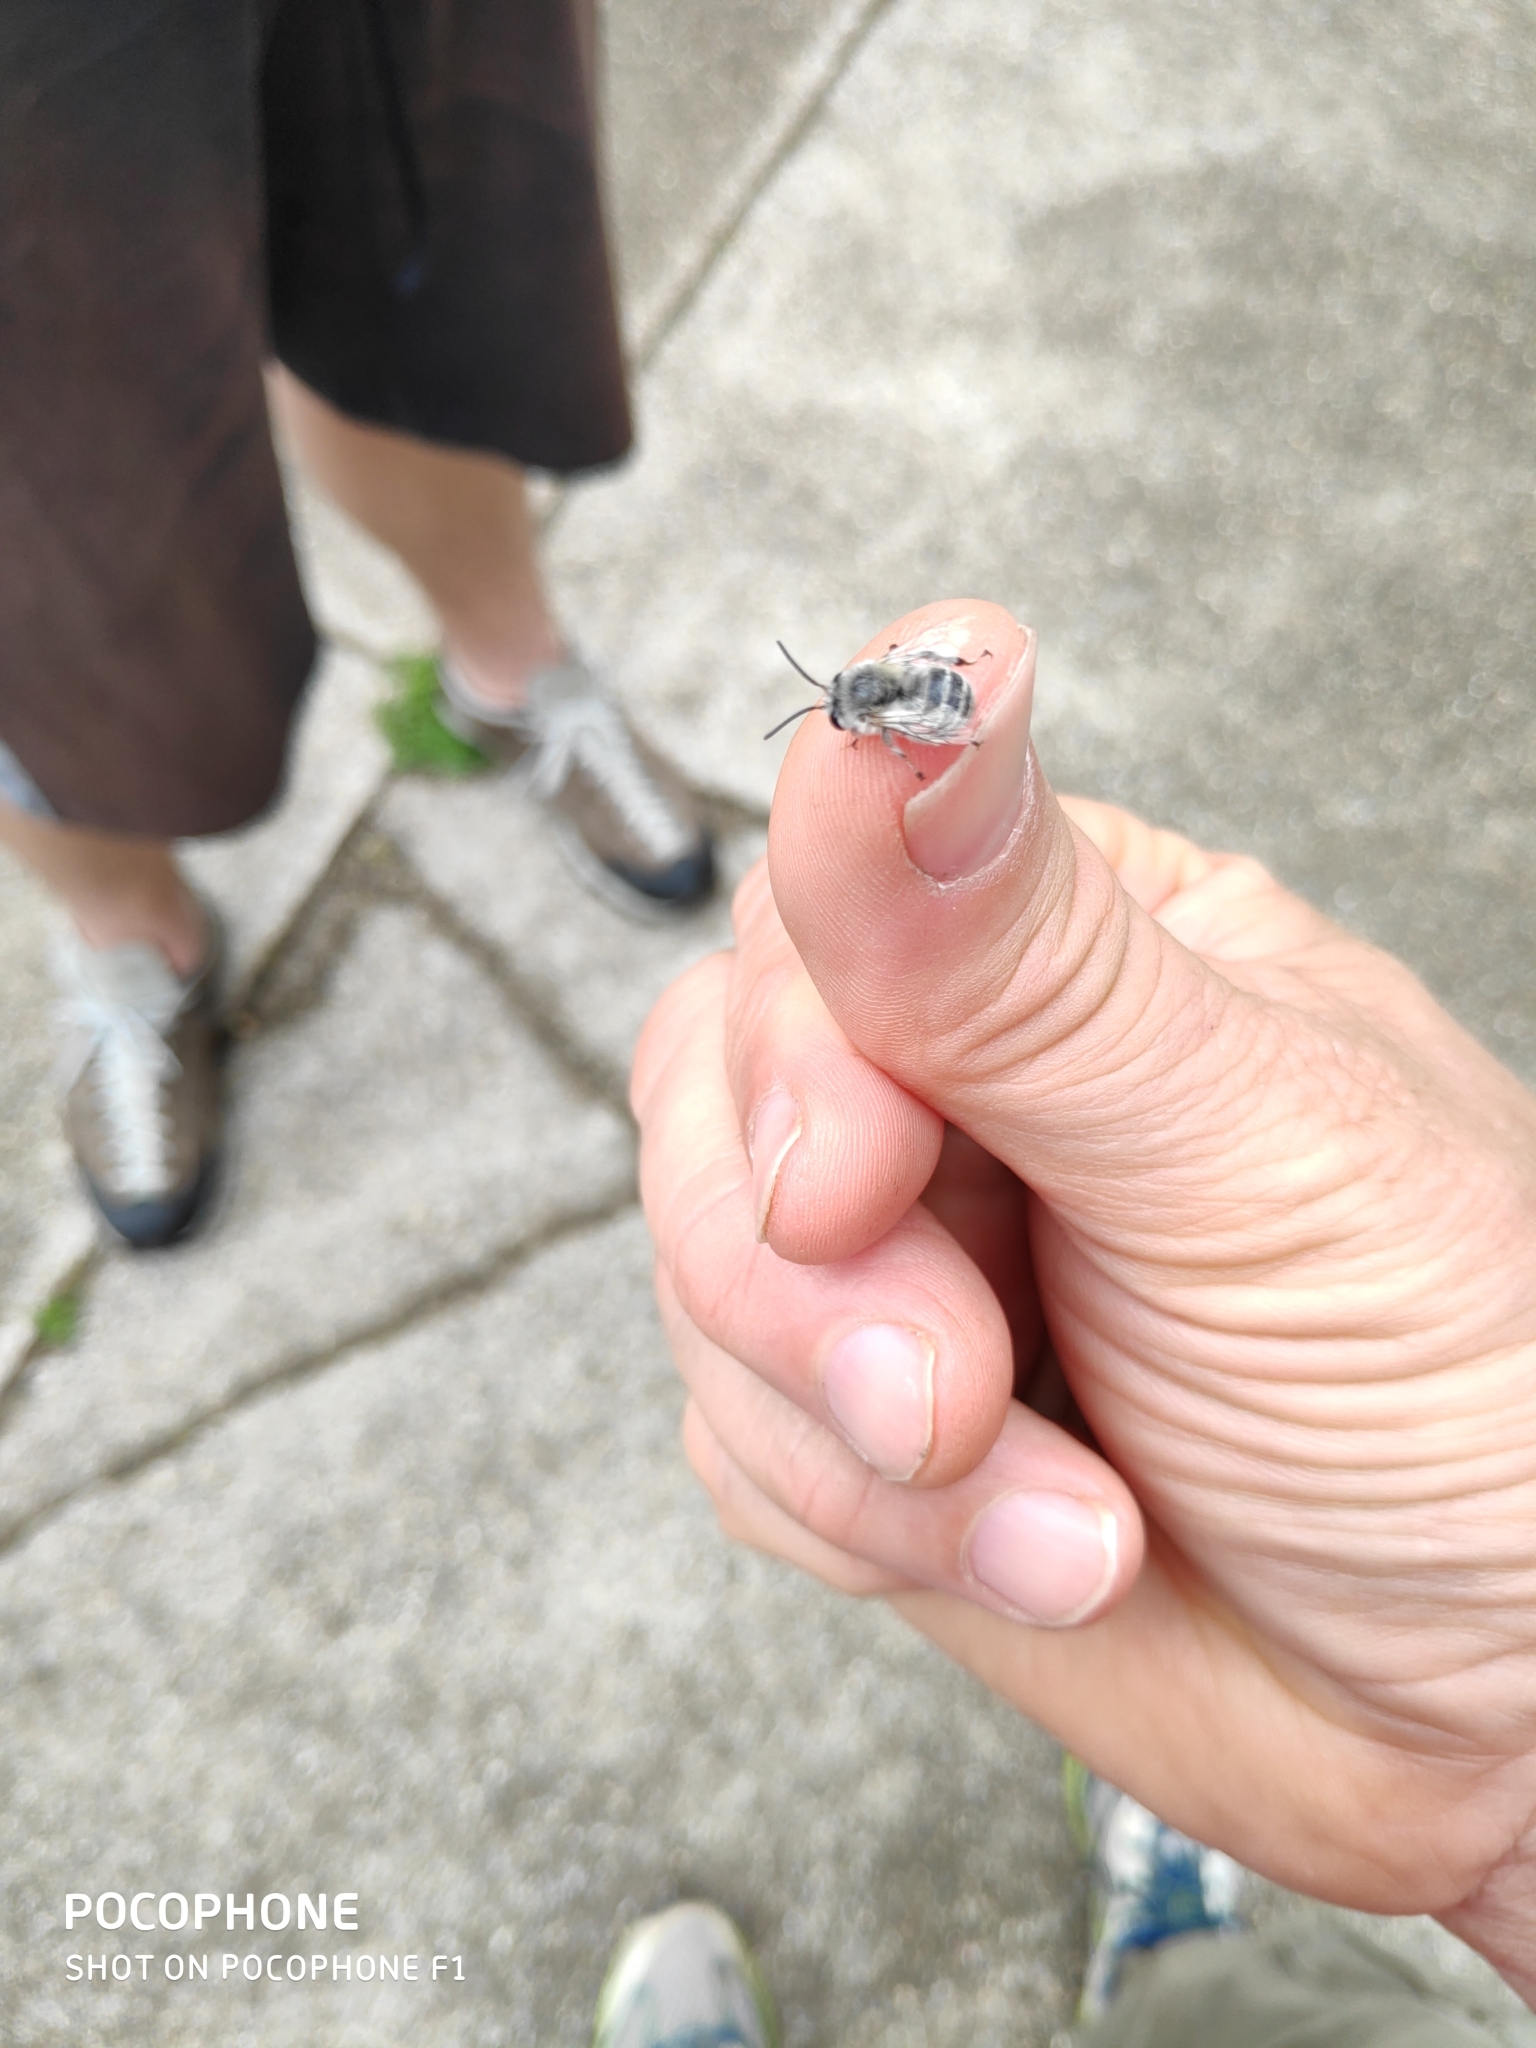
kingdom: Animalia
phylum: Arthropoda
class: Insecta
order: Hymenoptera
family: Apidae
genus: Anthophora
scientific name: Anthophora pubescens
